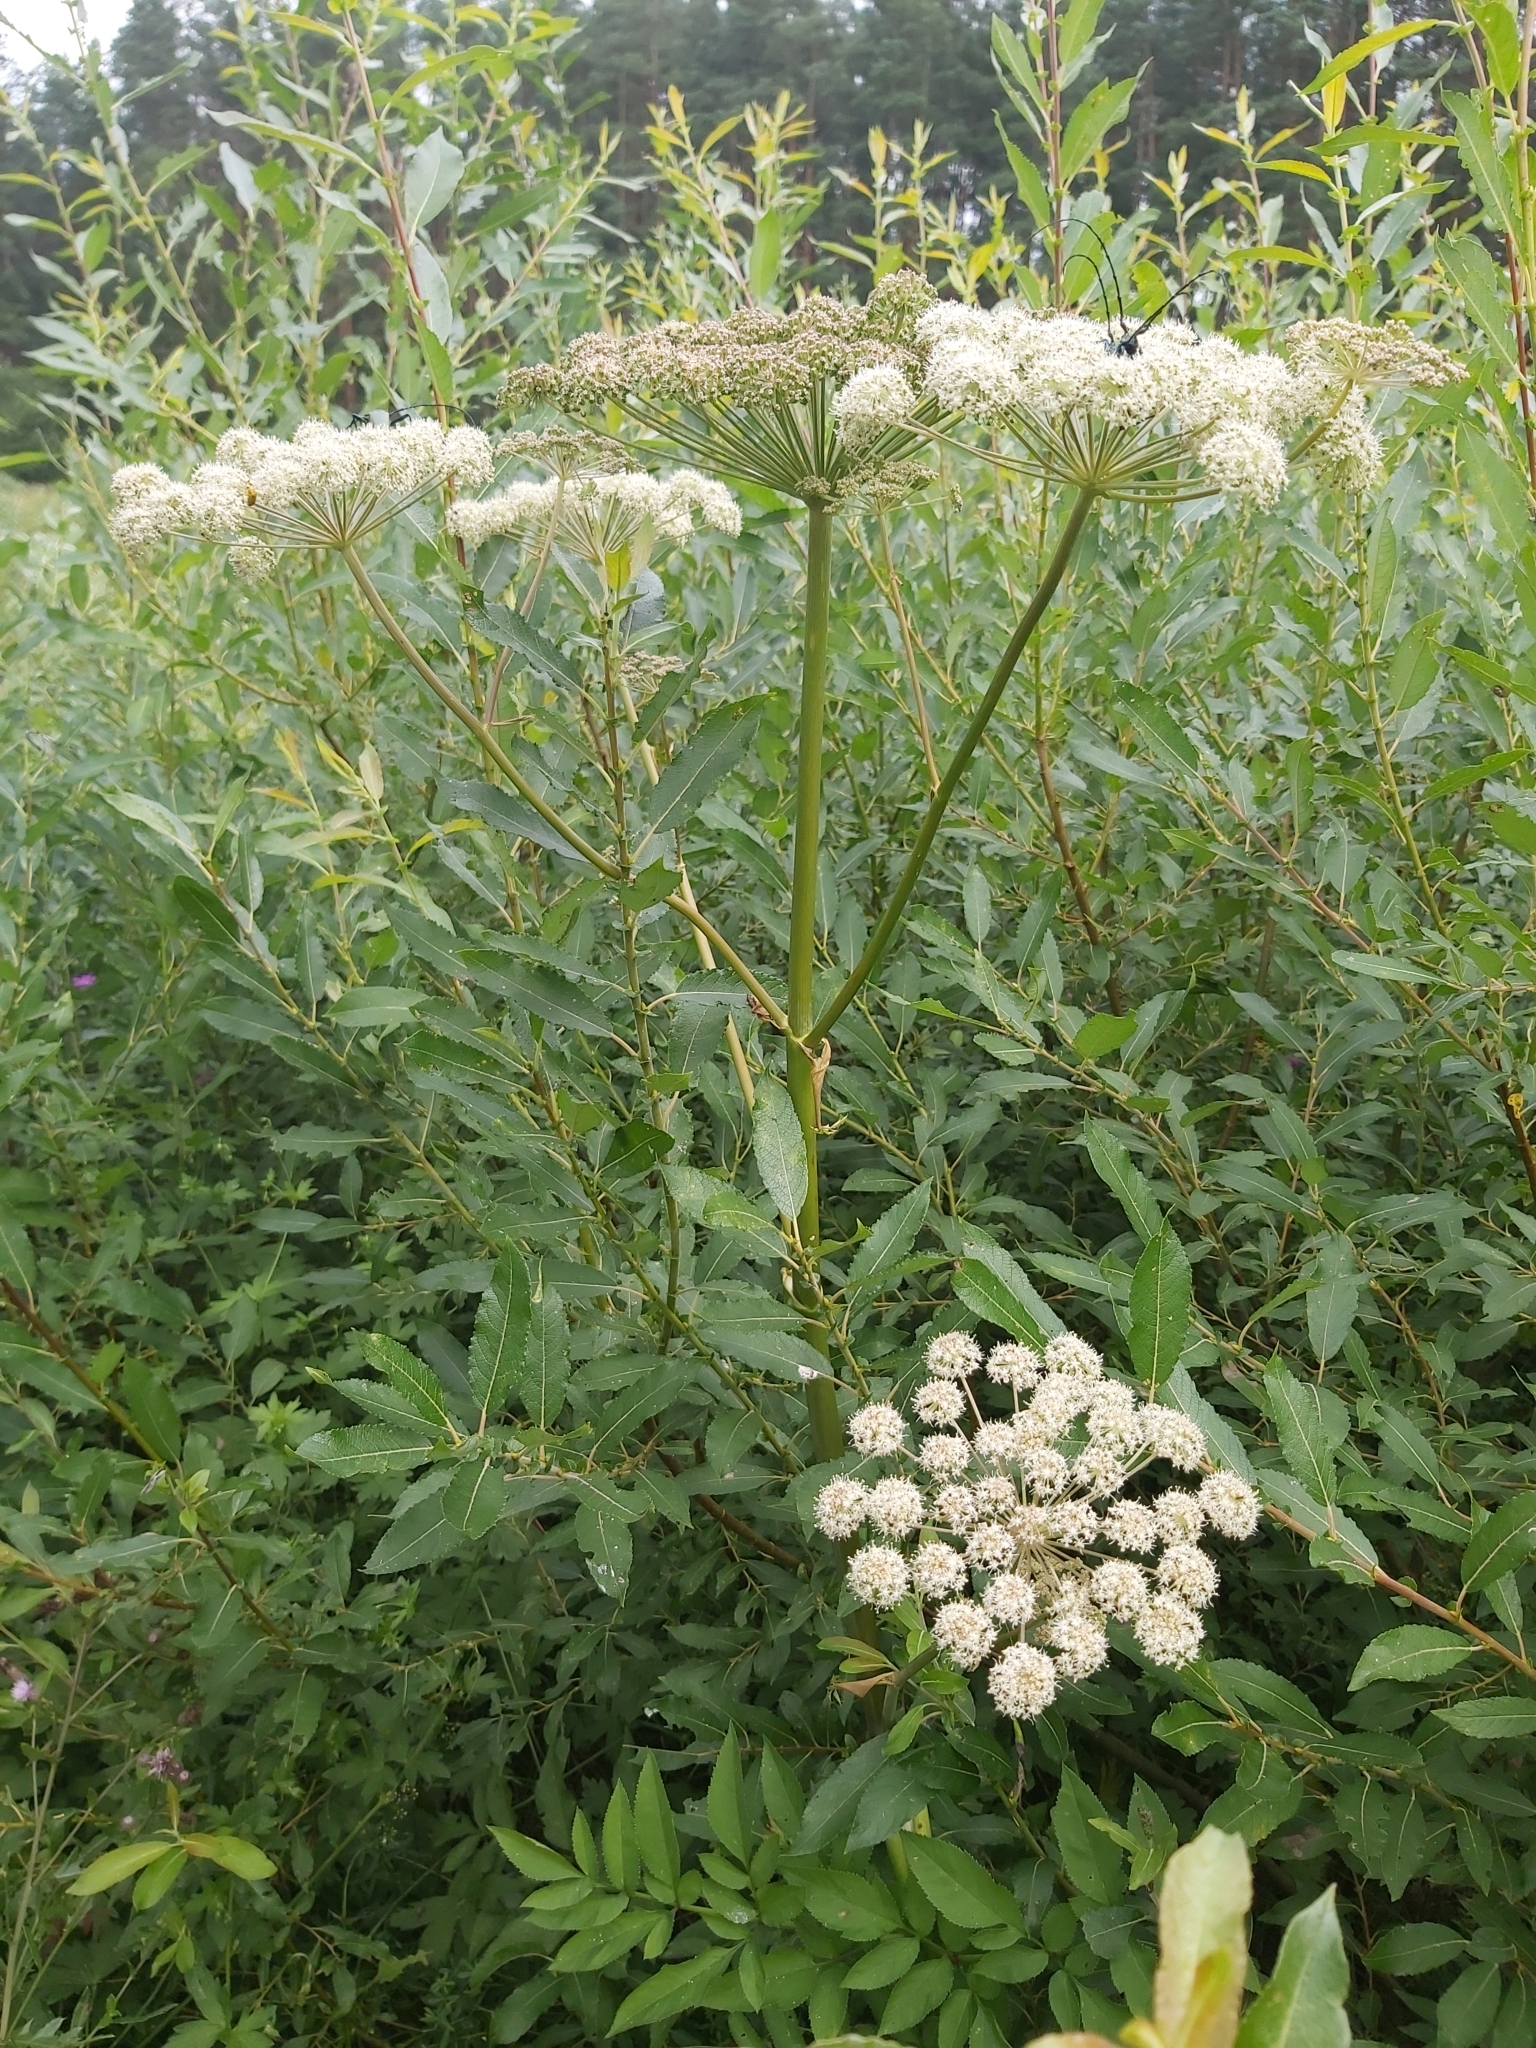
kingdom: Plantae
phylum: Tracheophyta
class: Magnoliopsida
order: Apiales
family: Apiaceae
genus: Angelica
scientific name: Angelica sylvestris
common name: Wild angelica
